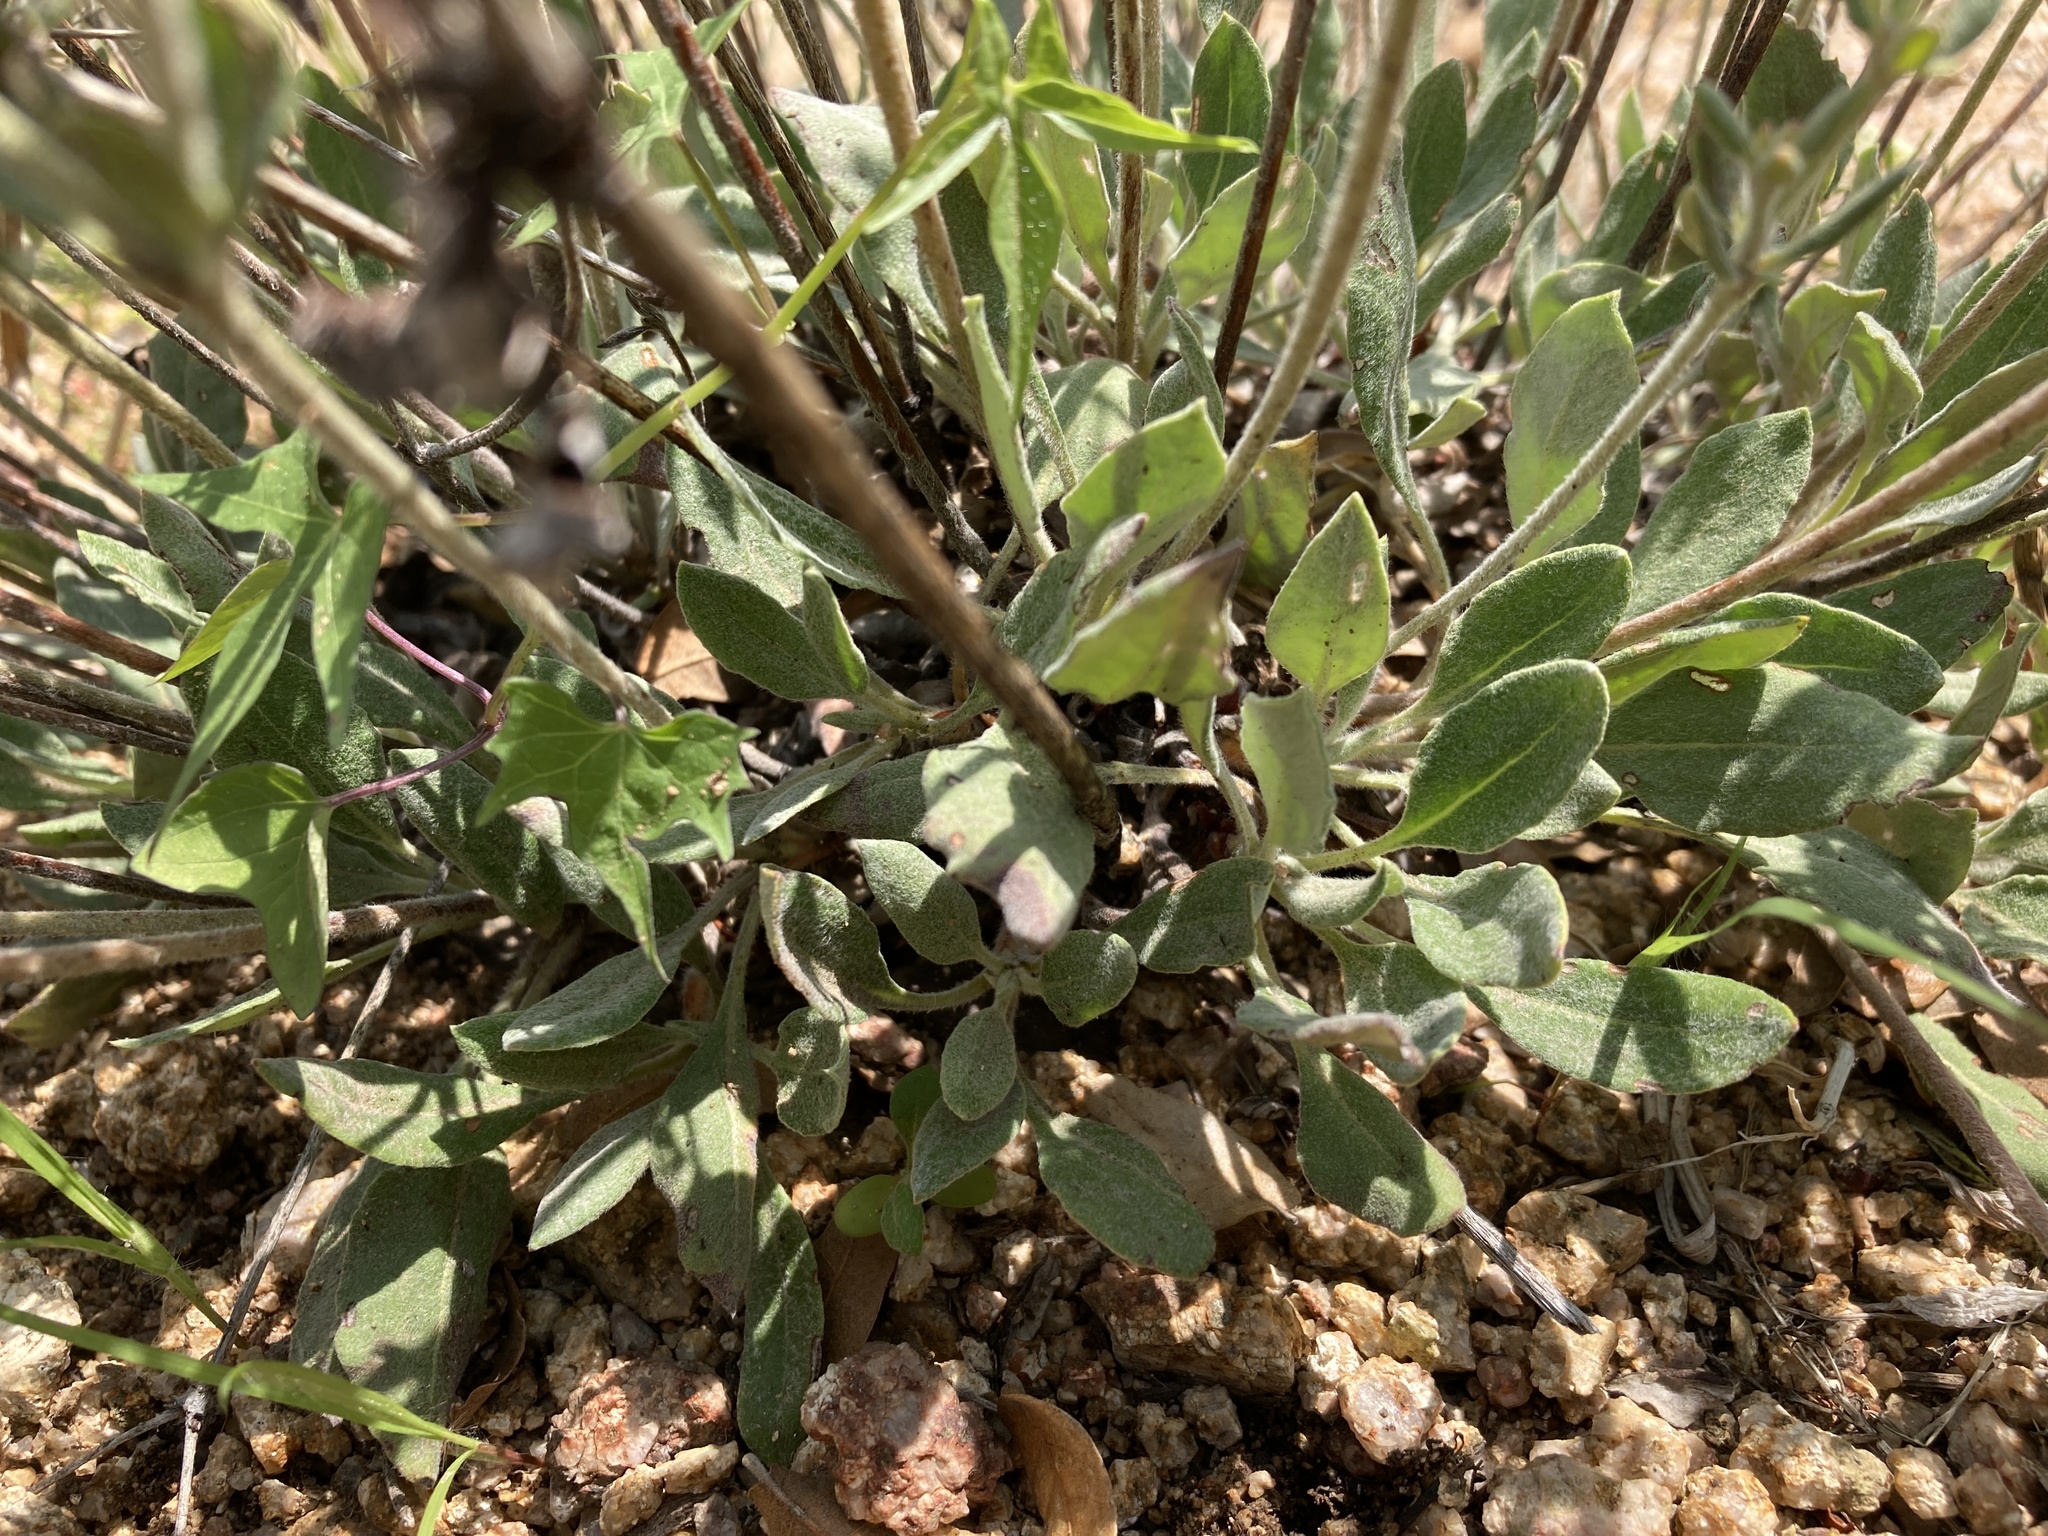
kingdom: Plantae
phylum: Tracheophyta
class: Magnoliopsida
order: Caryophyllales
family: Polygonaceae
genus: Eriogonum
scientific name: Eriogonum jamesii
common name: Antelope-sage
